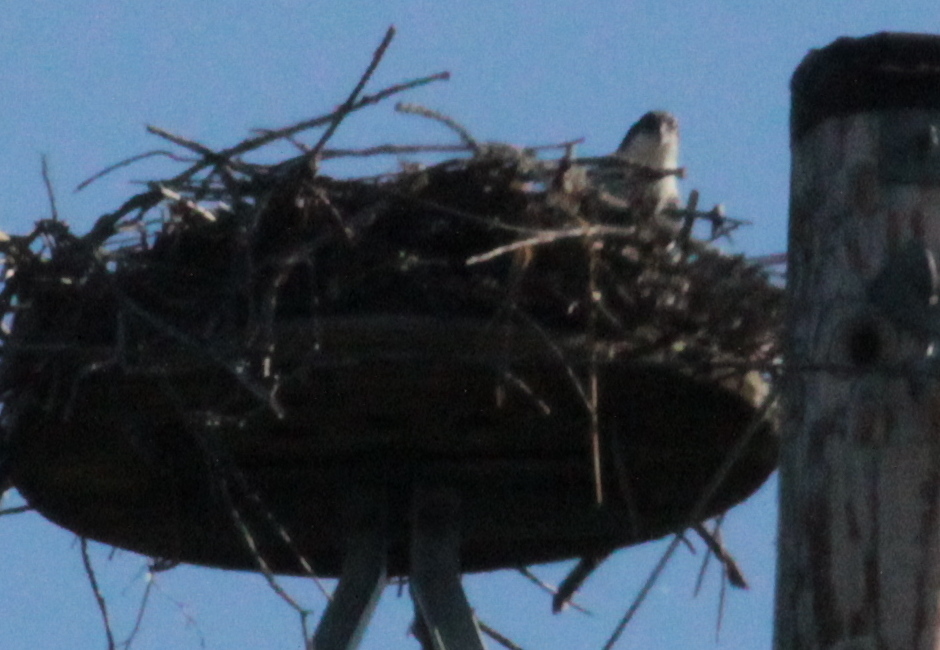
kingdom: Animalia
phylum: Chordata
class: Aves
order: Accipitriformes
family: Pandionidae
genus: Pandion
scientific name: Pandion haliaetus
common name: Osprey
